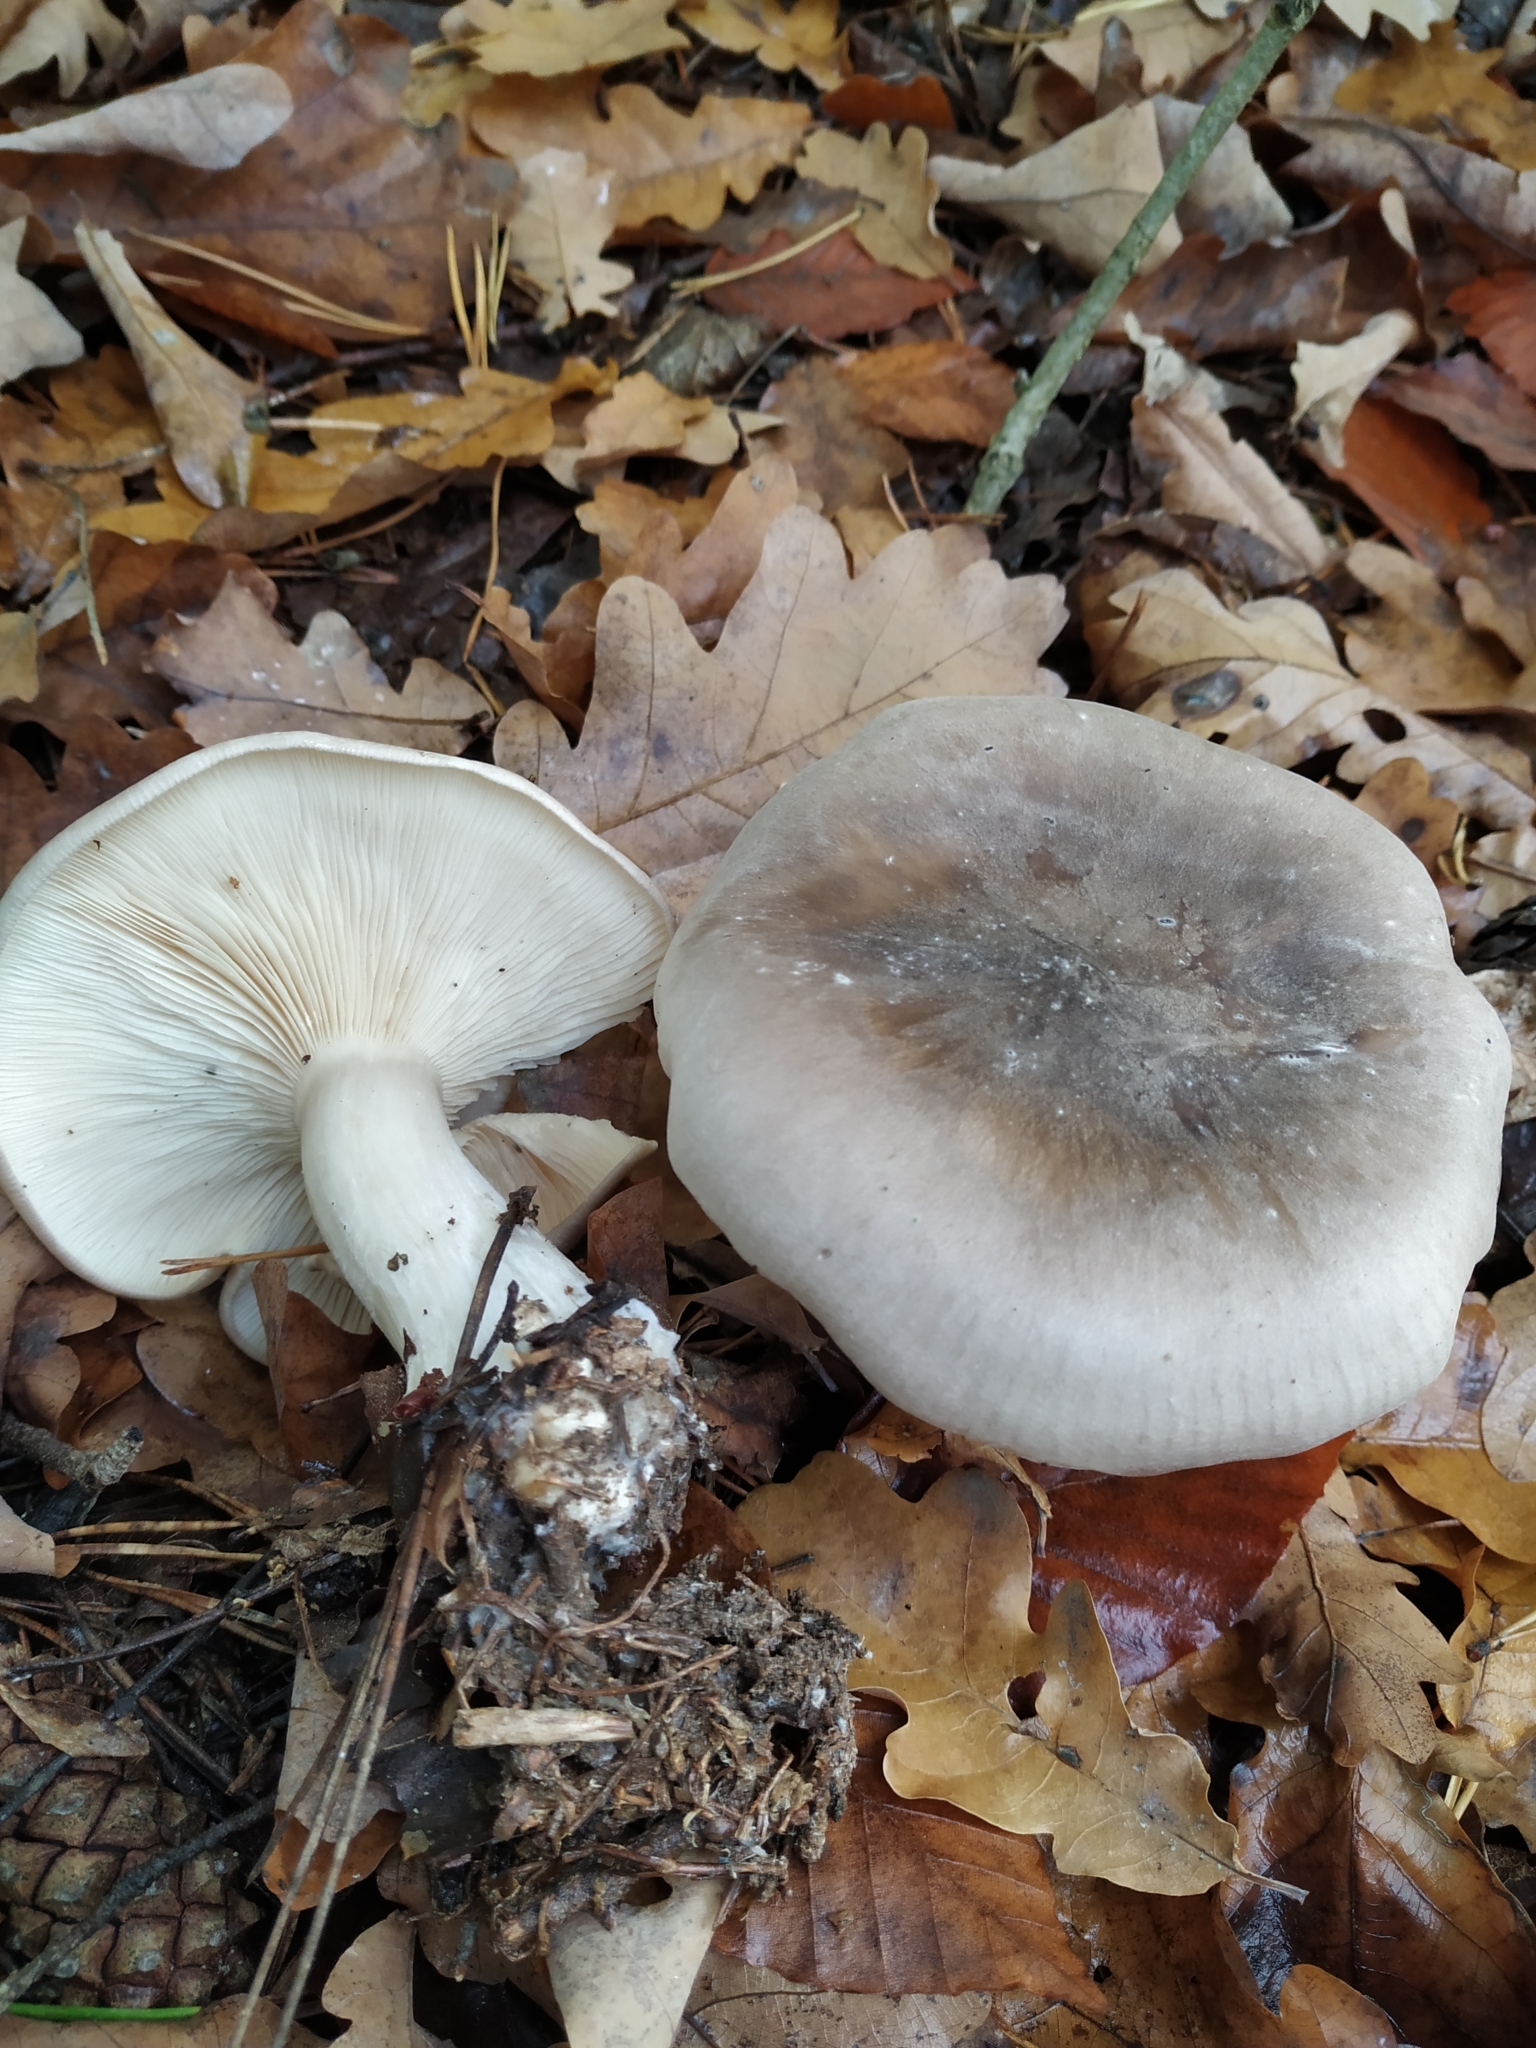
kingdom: Fungi
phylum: Basidiomycota
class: Agaricomycetes
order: Agaricales
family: Tricholomataceae
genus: Clitocybe
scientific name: Clitocybe nebularis
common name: Clouded agaric
